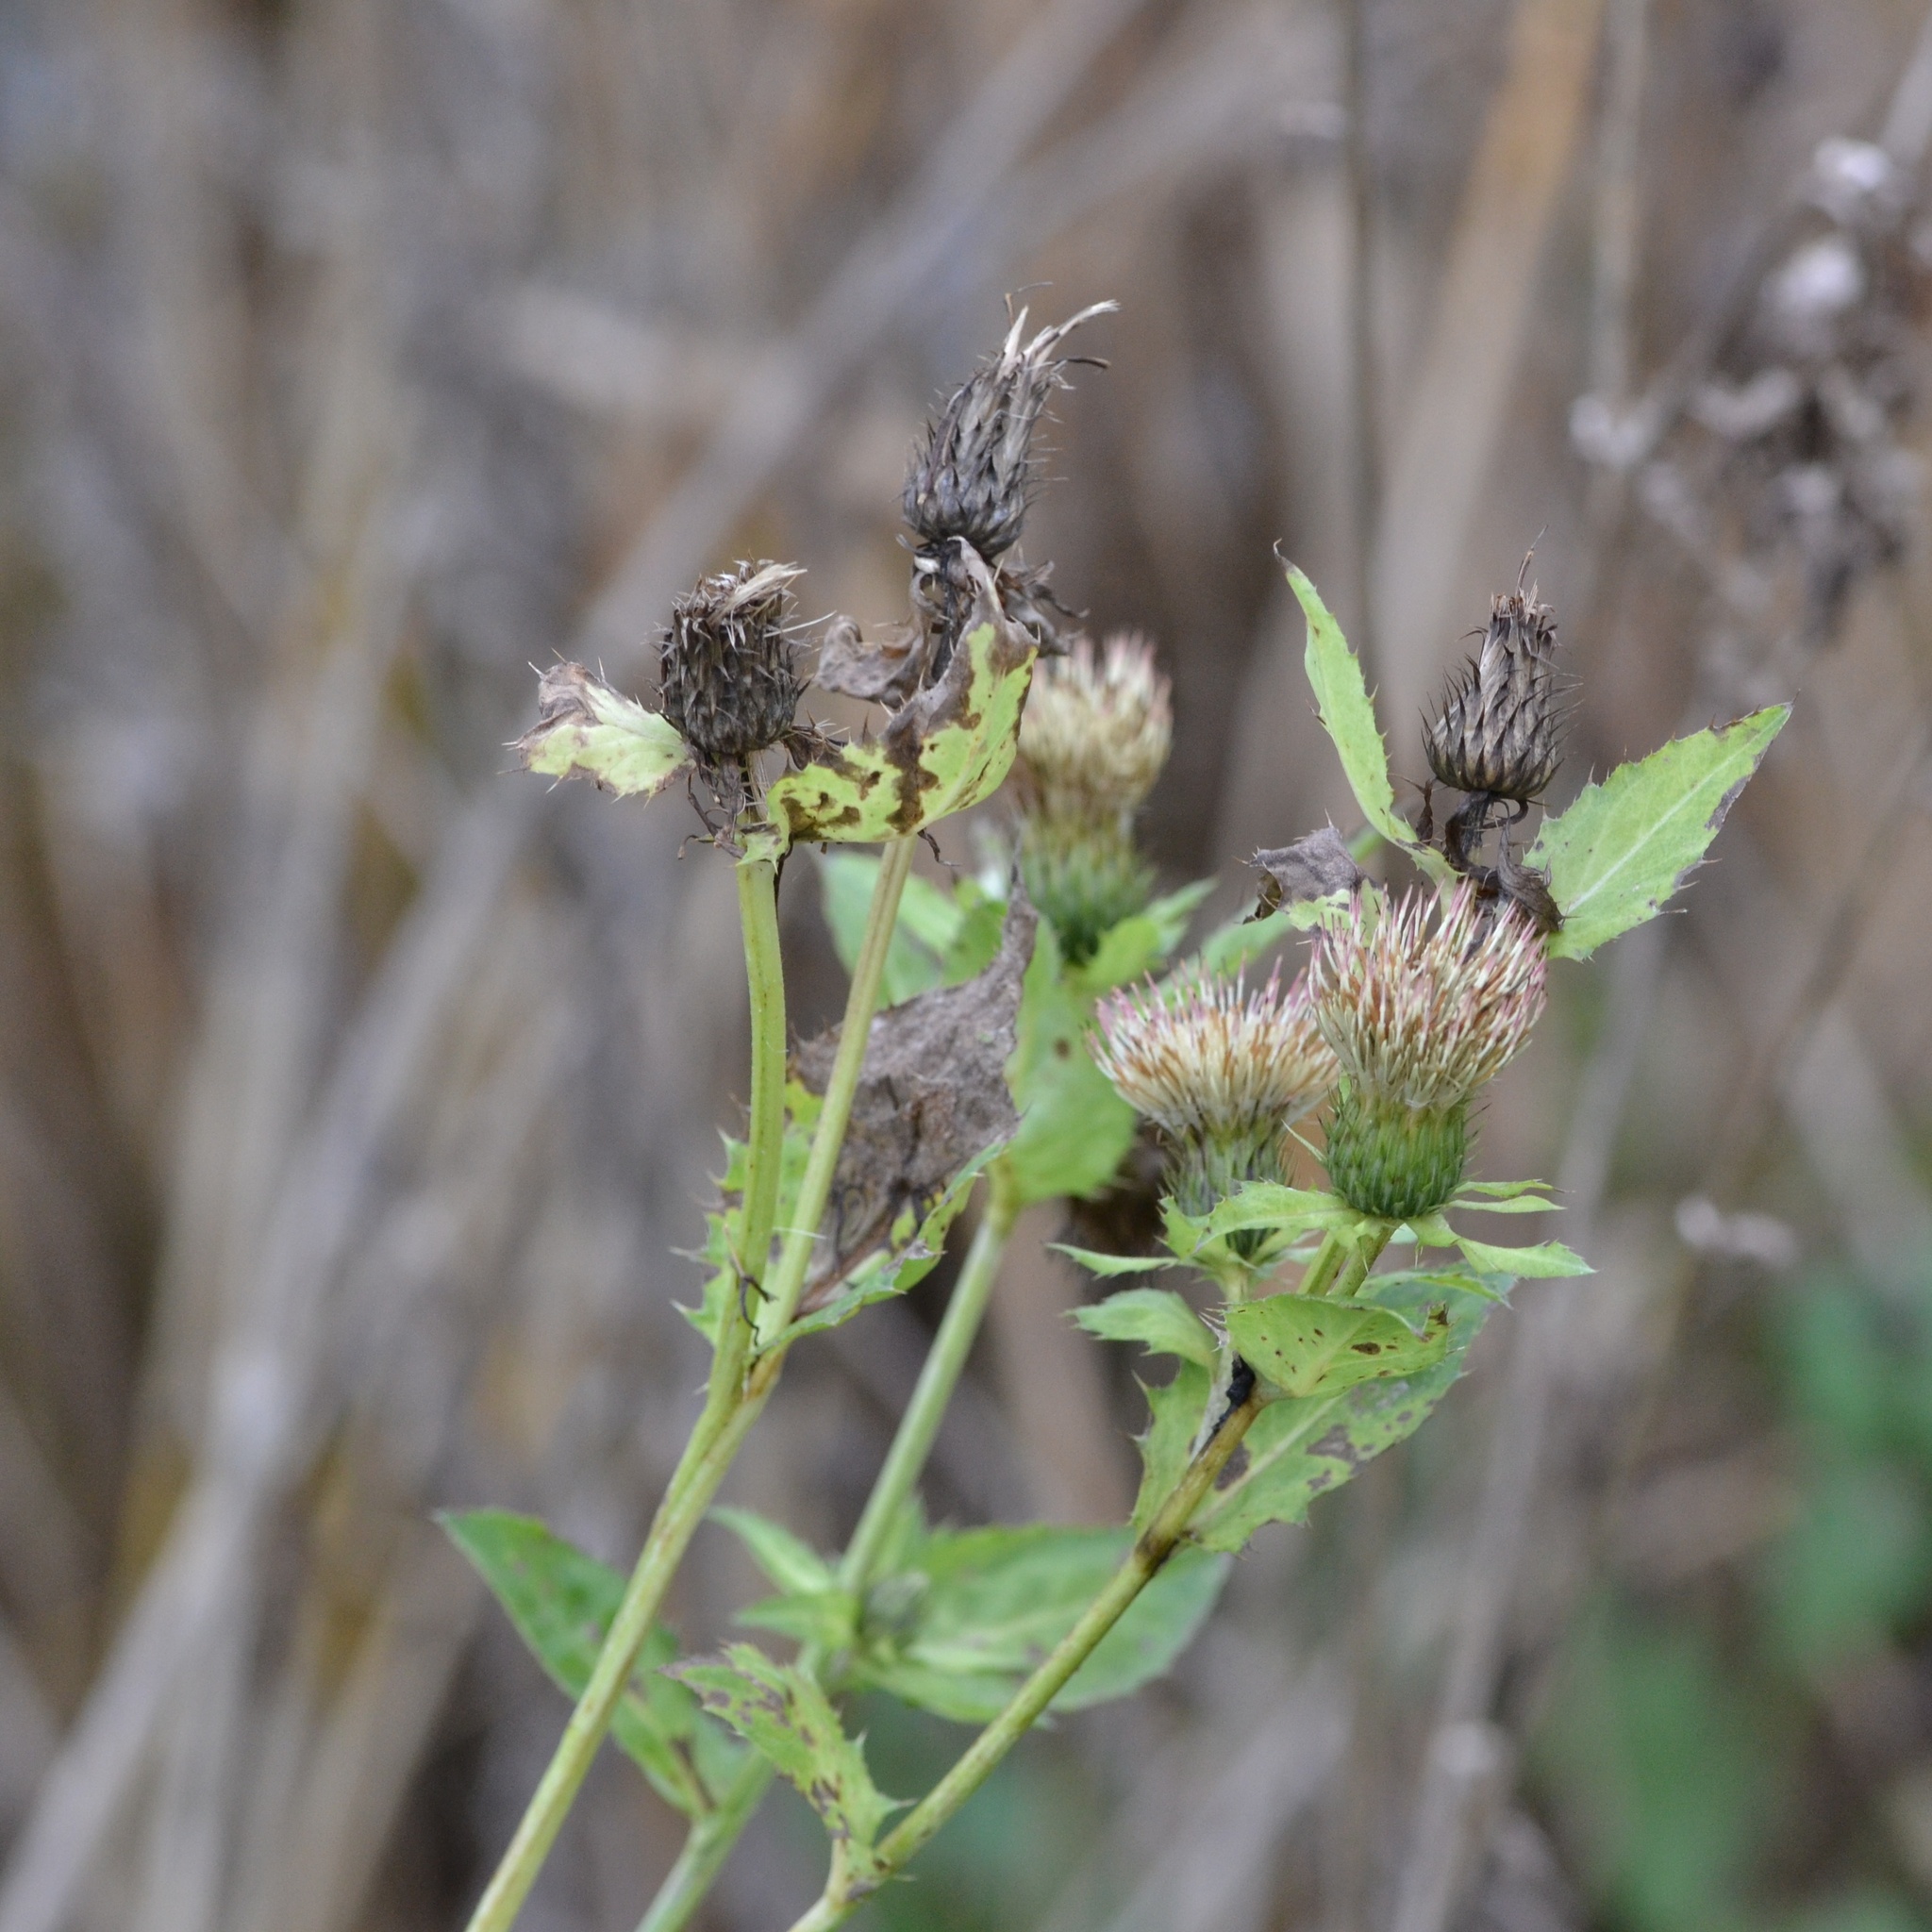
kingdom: Plantae
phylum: Tracheophyta
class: Magnoliopsida
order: Asterales
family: Asteraceae
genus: Cirsium
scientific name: Cirsium oleraceum
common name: Cabbage thistle
